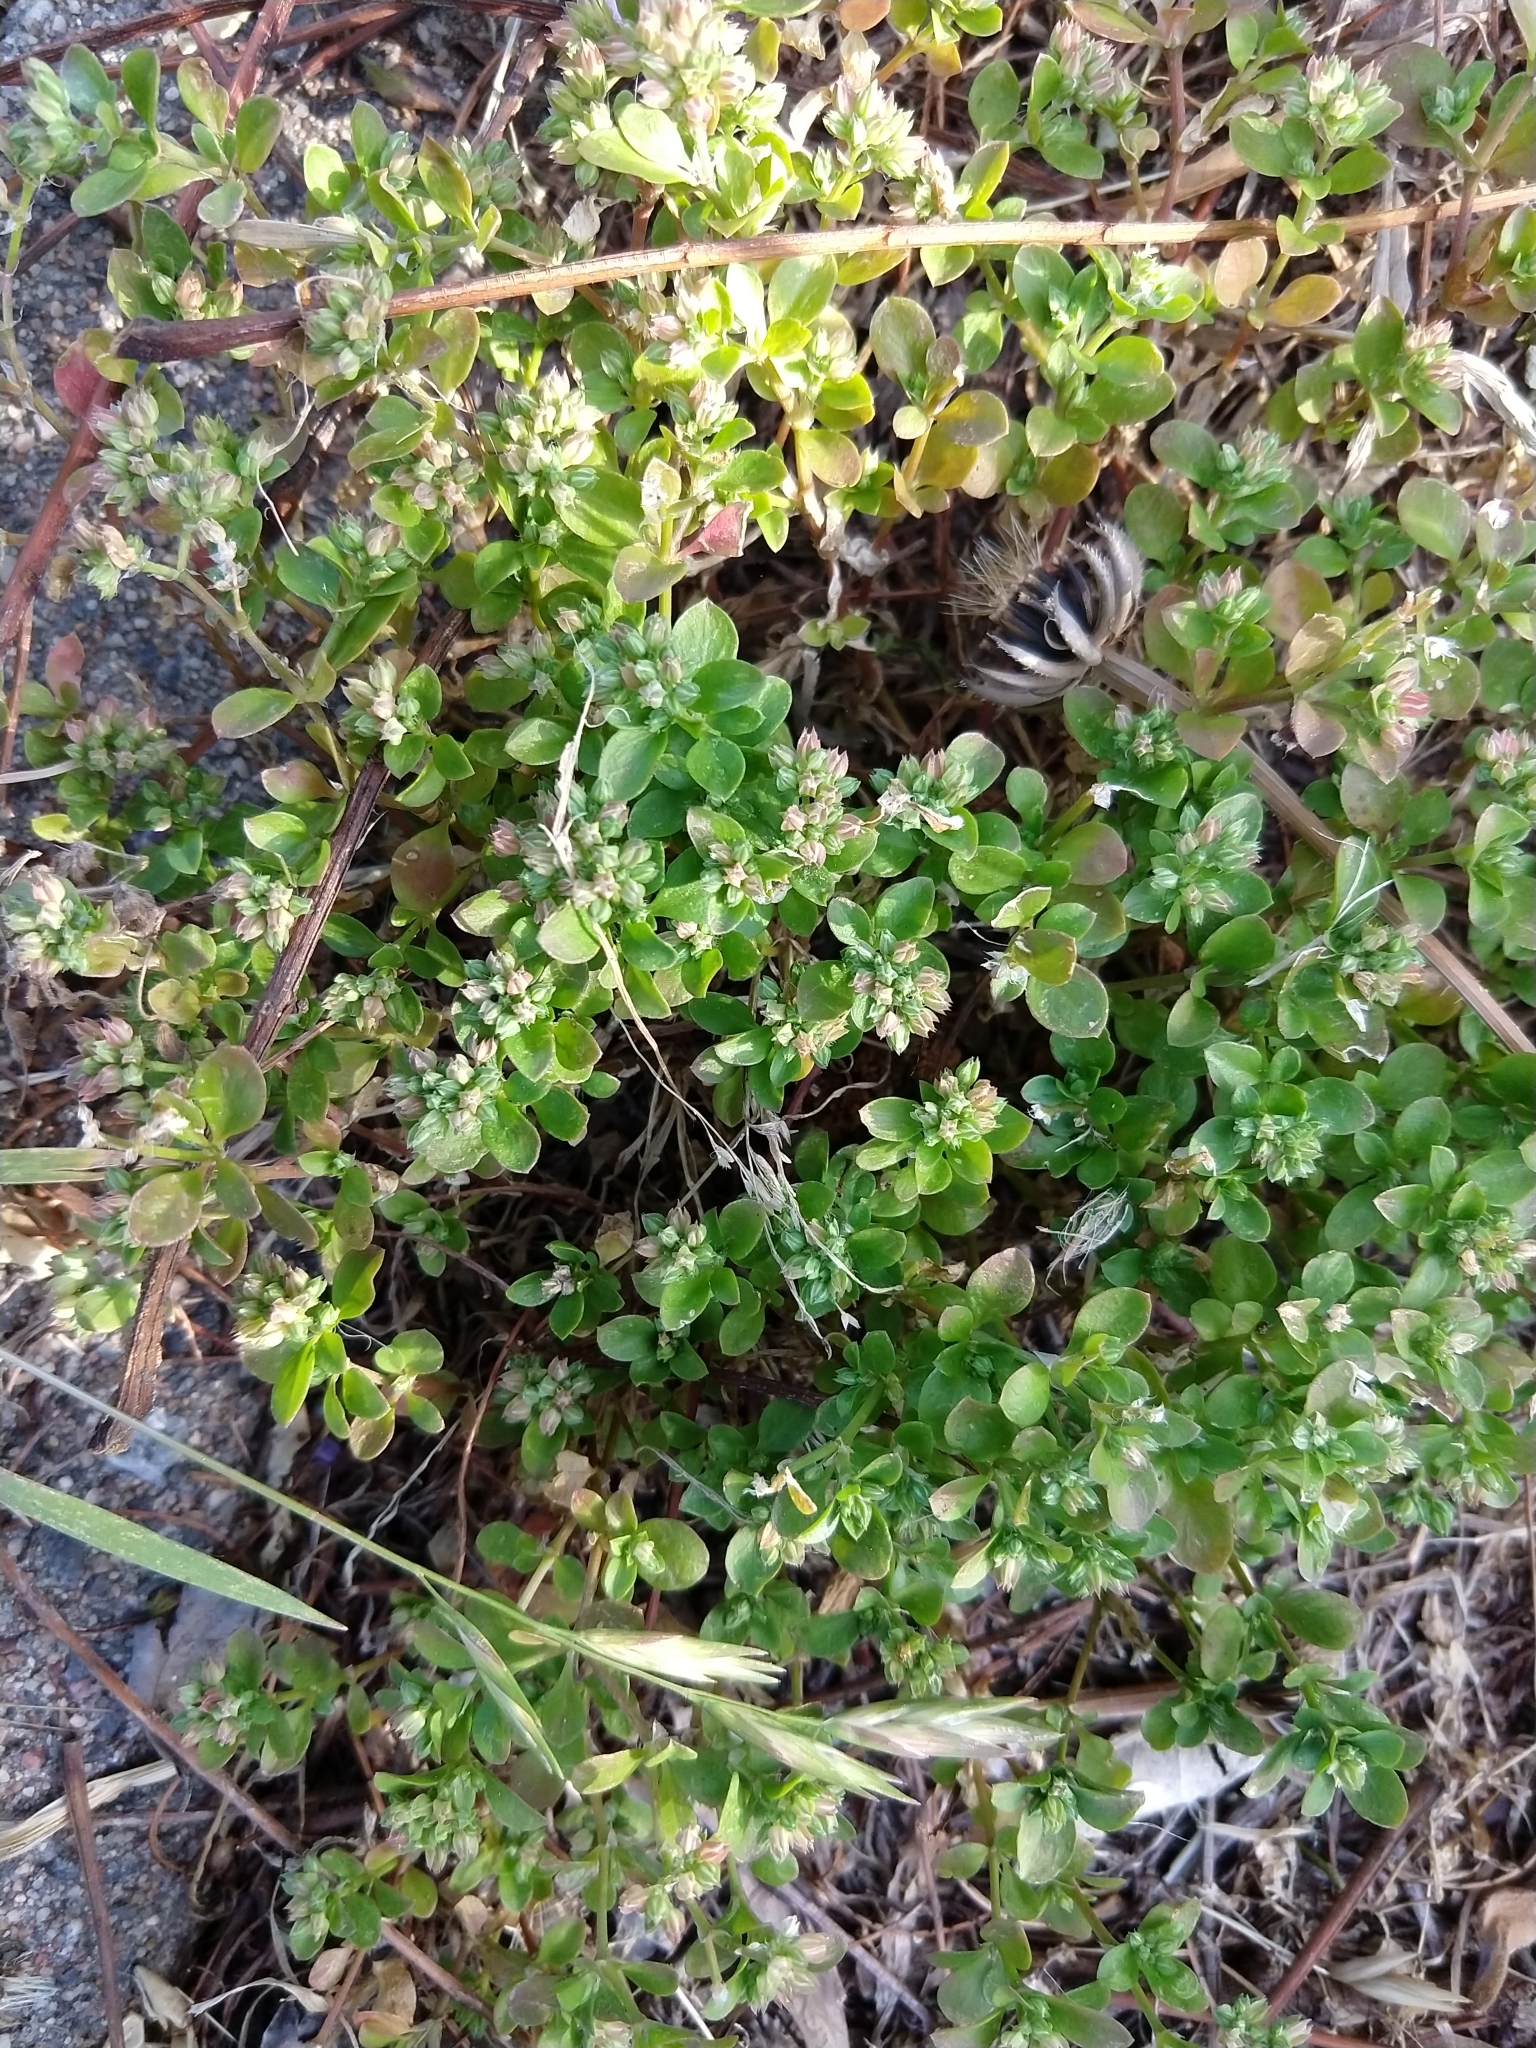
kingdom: Plantae
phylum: Tracheophyta
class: Magnoliopsida
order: Caryophyllales
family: Caryophyllaceae
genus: Polycarpon
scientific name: Polycarpon tetraphyllum
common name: Four-leaved all-seed
